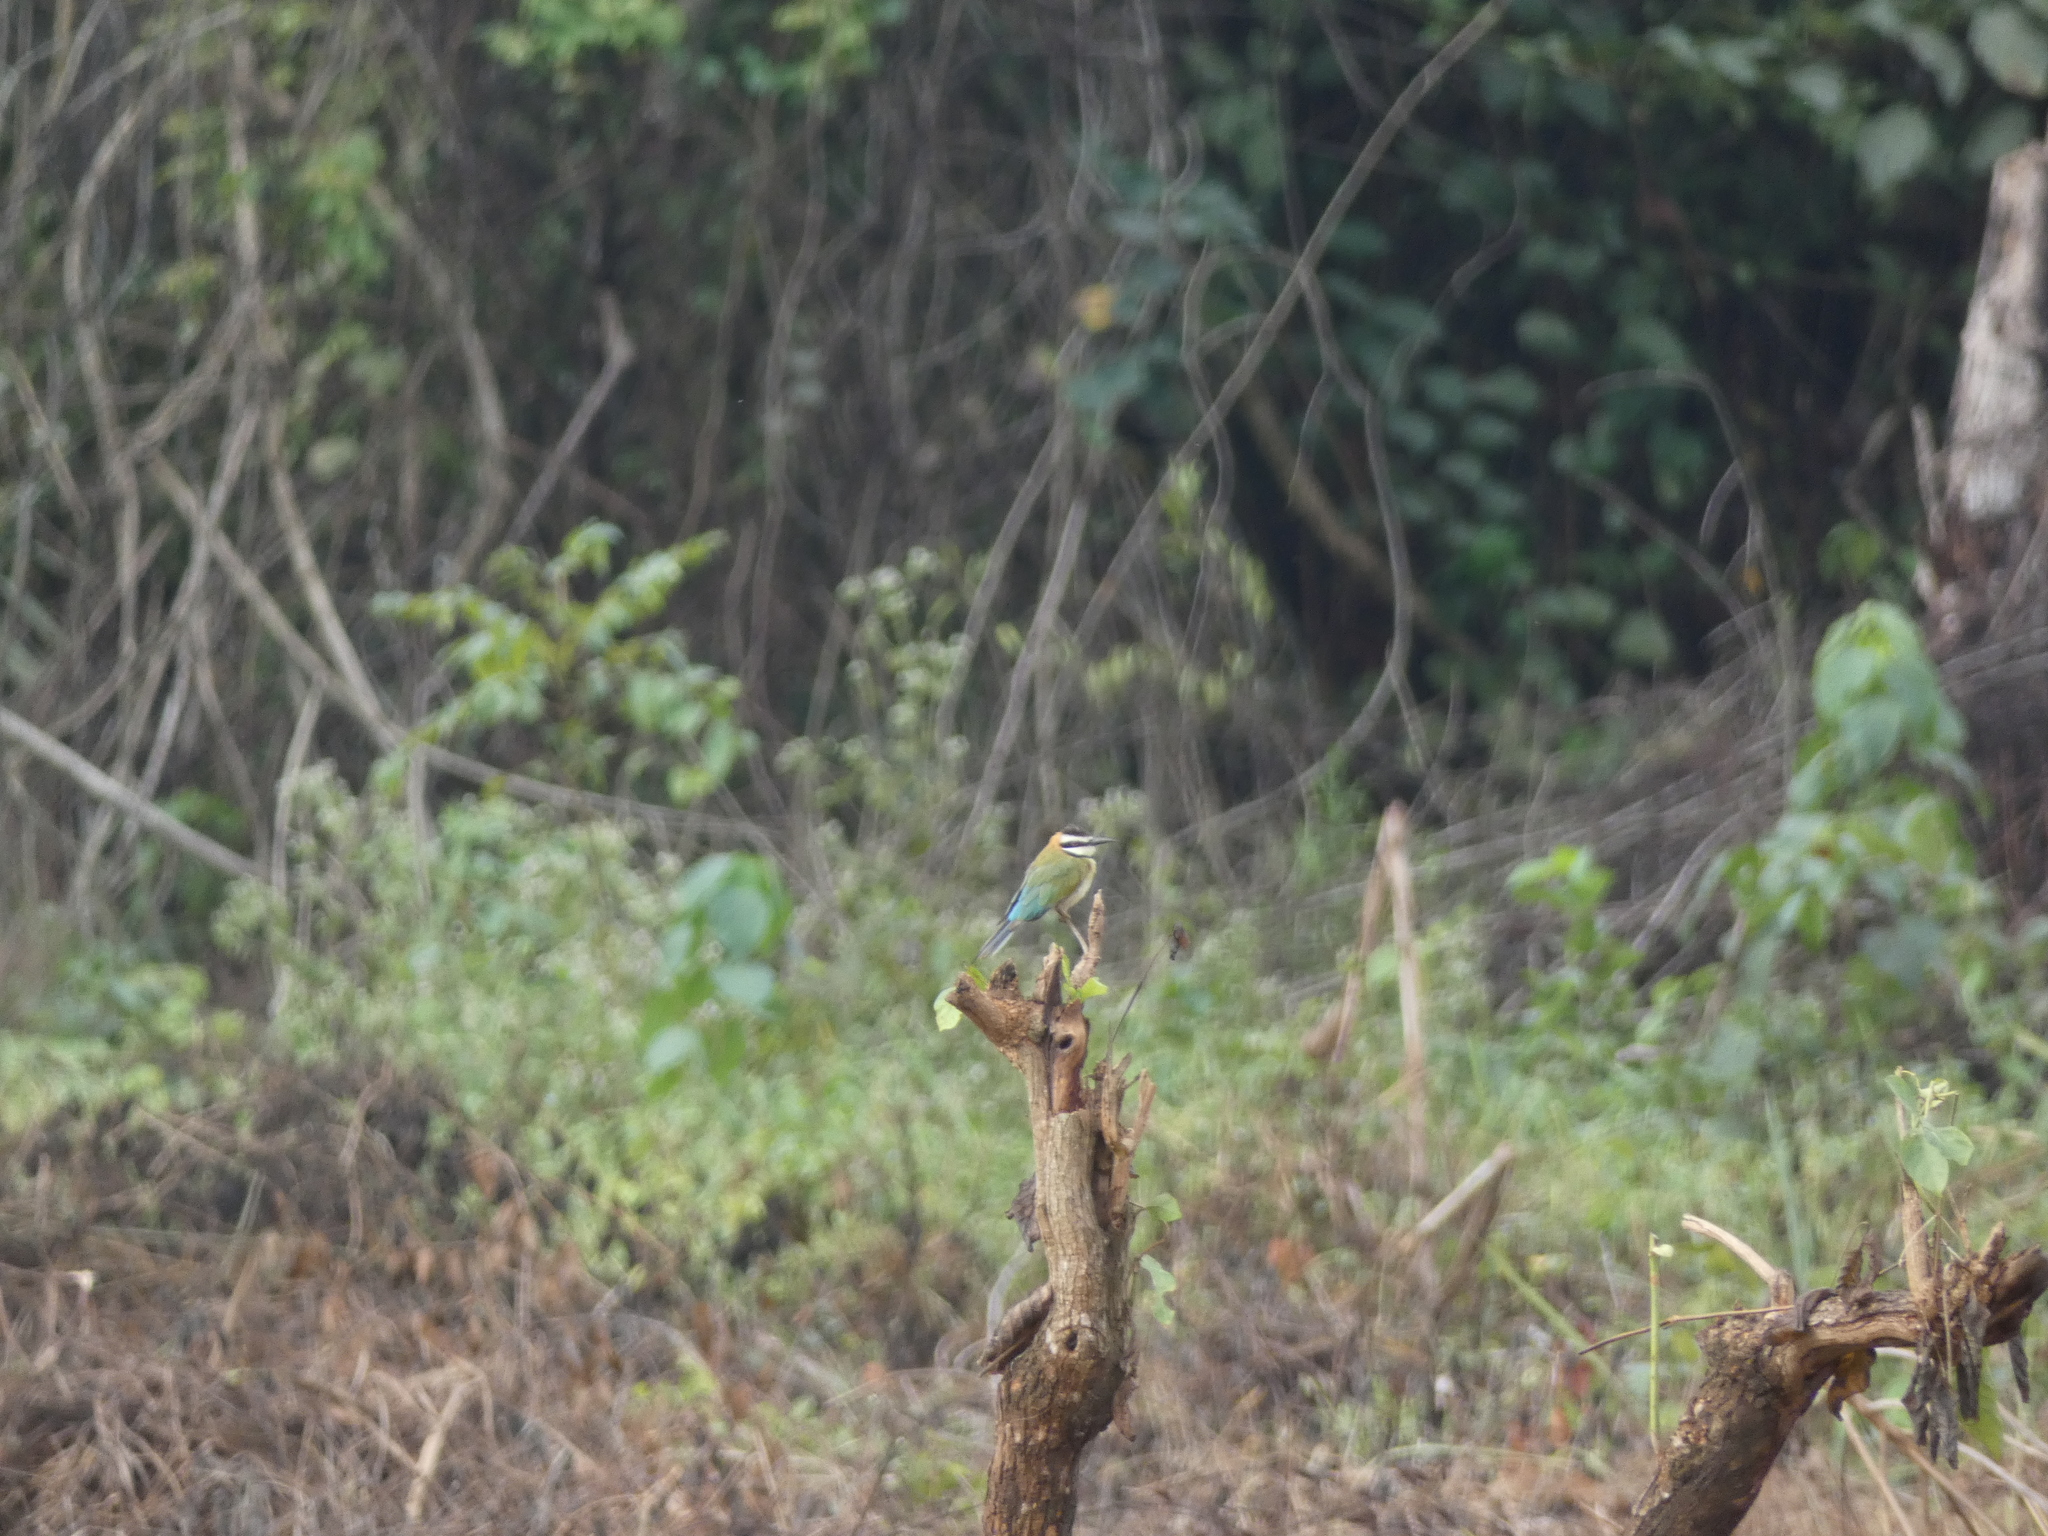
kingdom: Animalia
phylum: Chordata
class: Aves
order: Coraciiformes
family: Meropidae
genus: Merops
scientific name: Merops albicollis
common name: White-throated bee-eater
